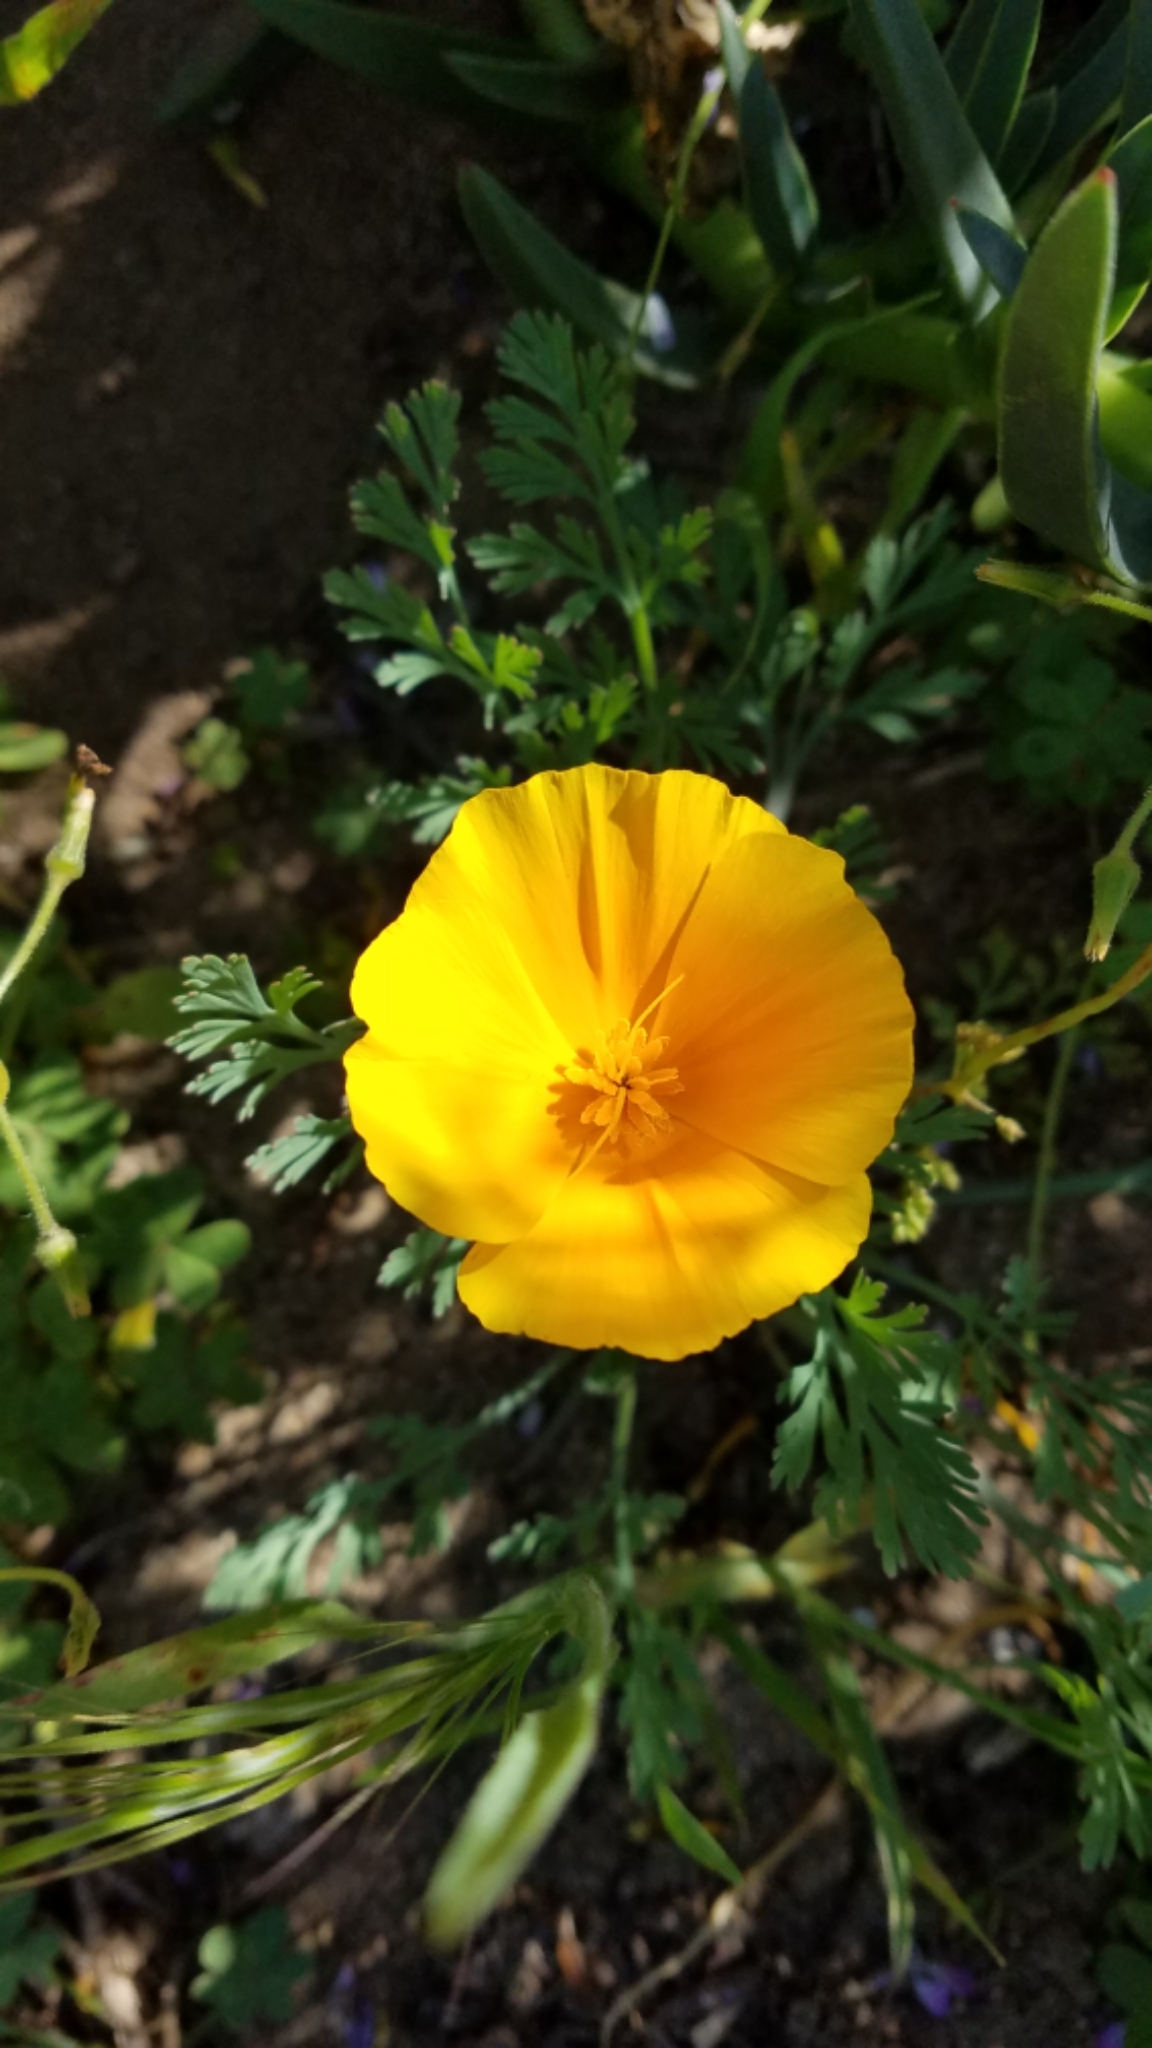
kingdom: Plantae
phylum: Tracheophyta
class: Magnoliopsida
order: Ranunculales
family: Papaveraceae
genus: Eschscholzia
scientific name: Eschscholzia californica
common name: California poppy
